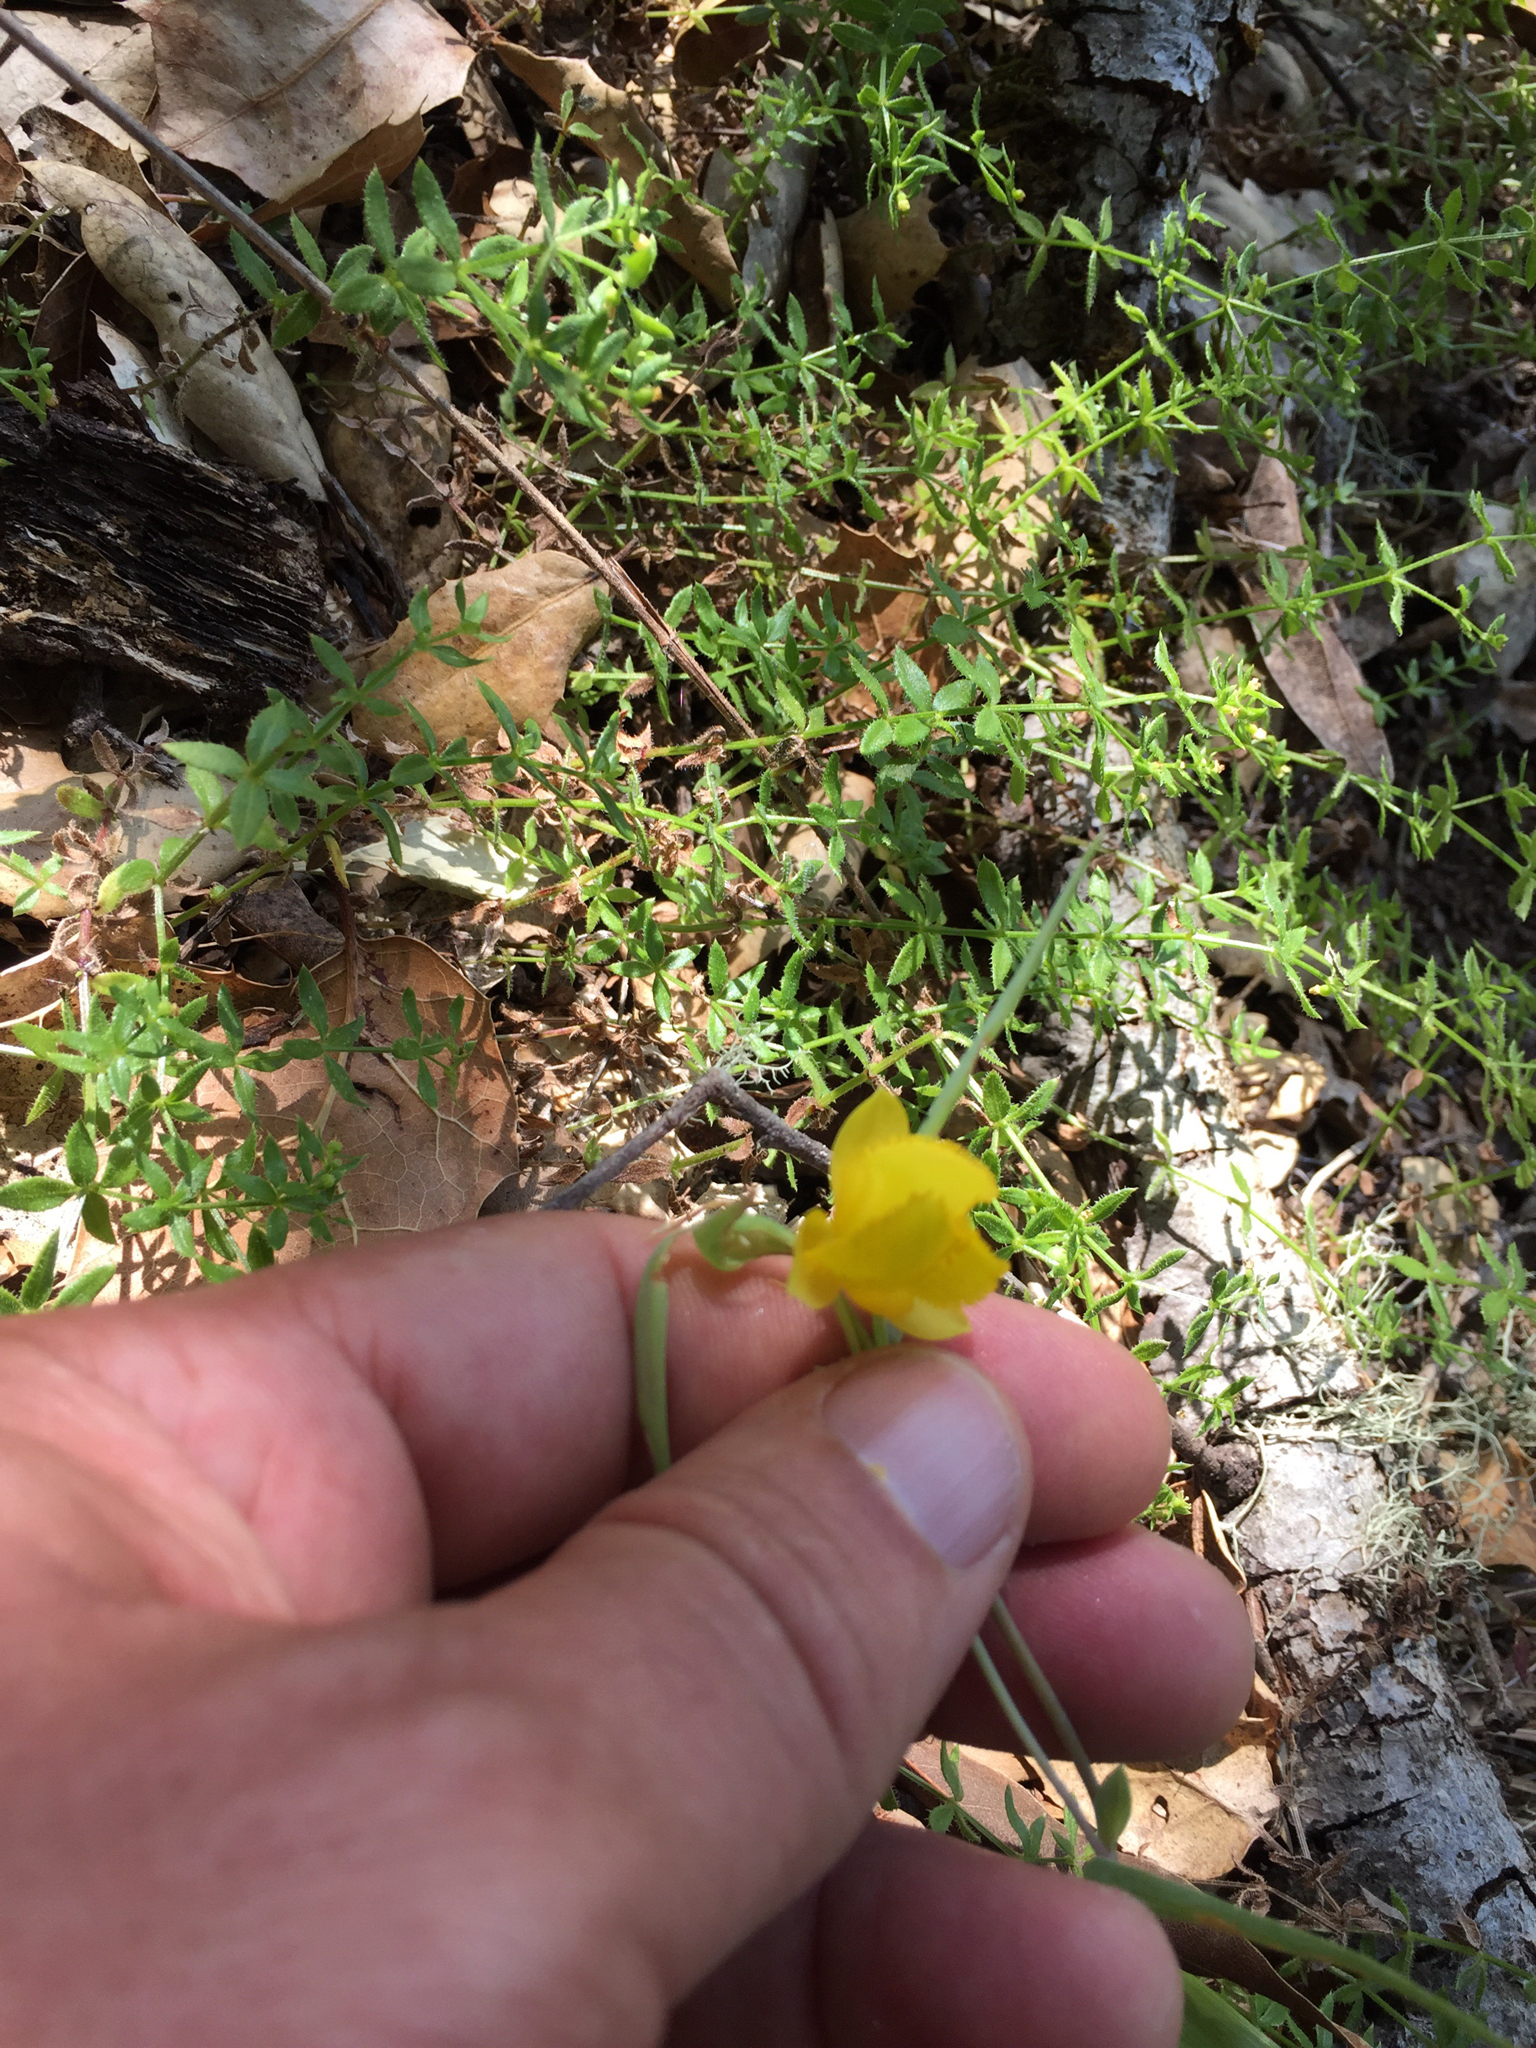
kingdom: Plantae
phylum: Tracheophyta
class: Liliopsida
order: Liliales
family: Liliaceae
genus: Calochortus
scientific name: Calochortus amabilis
